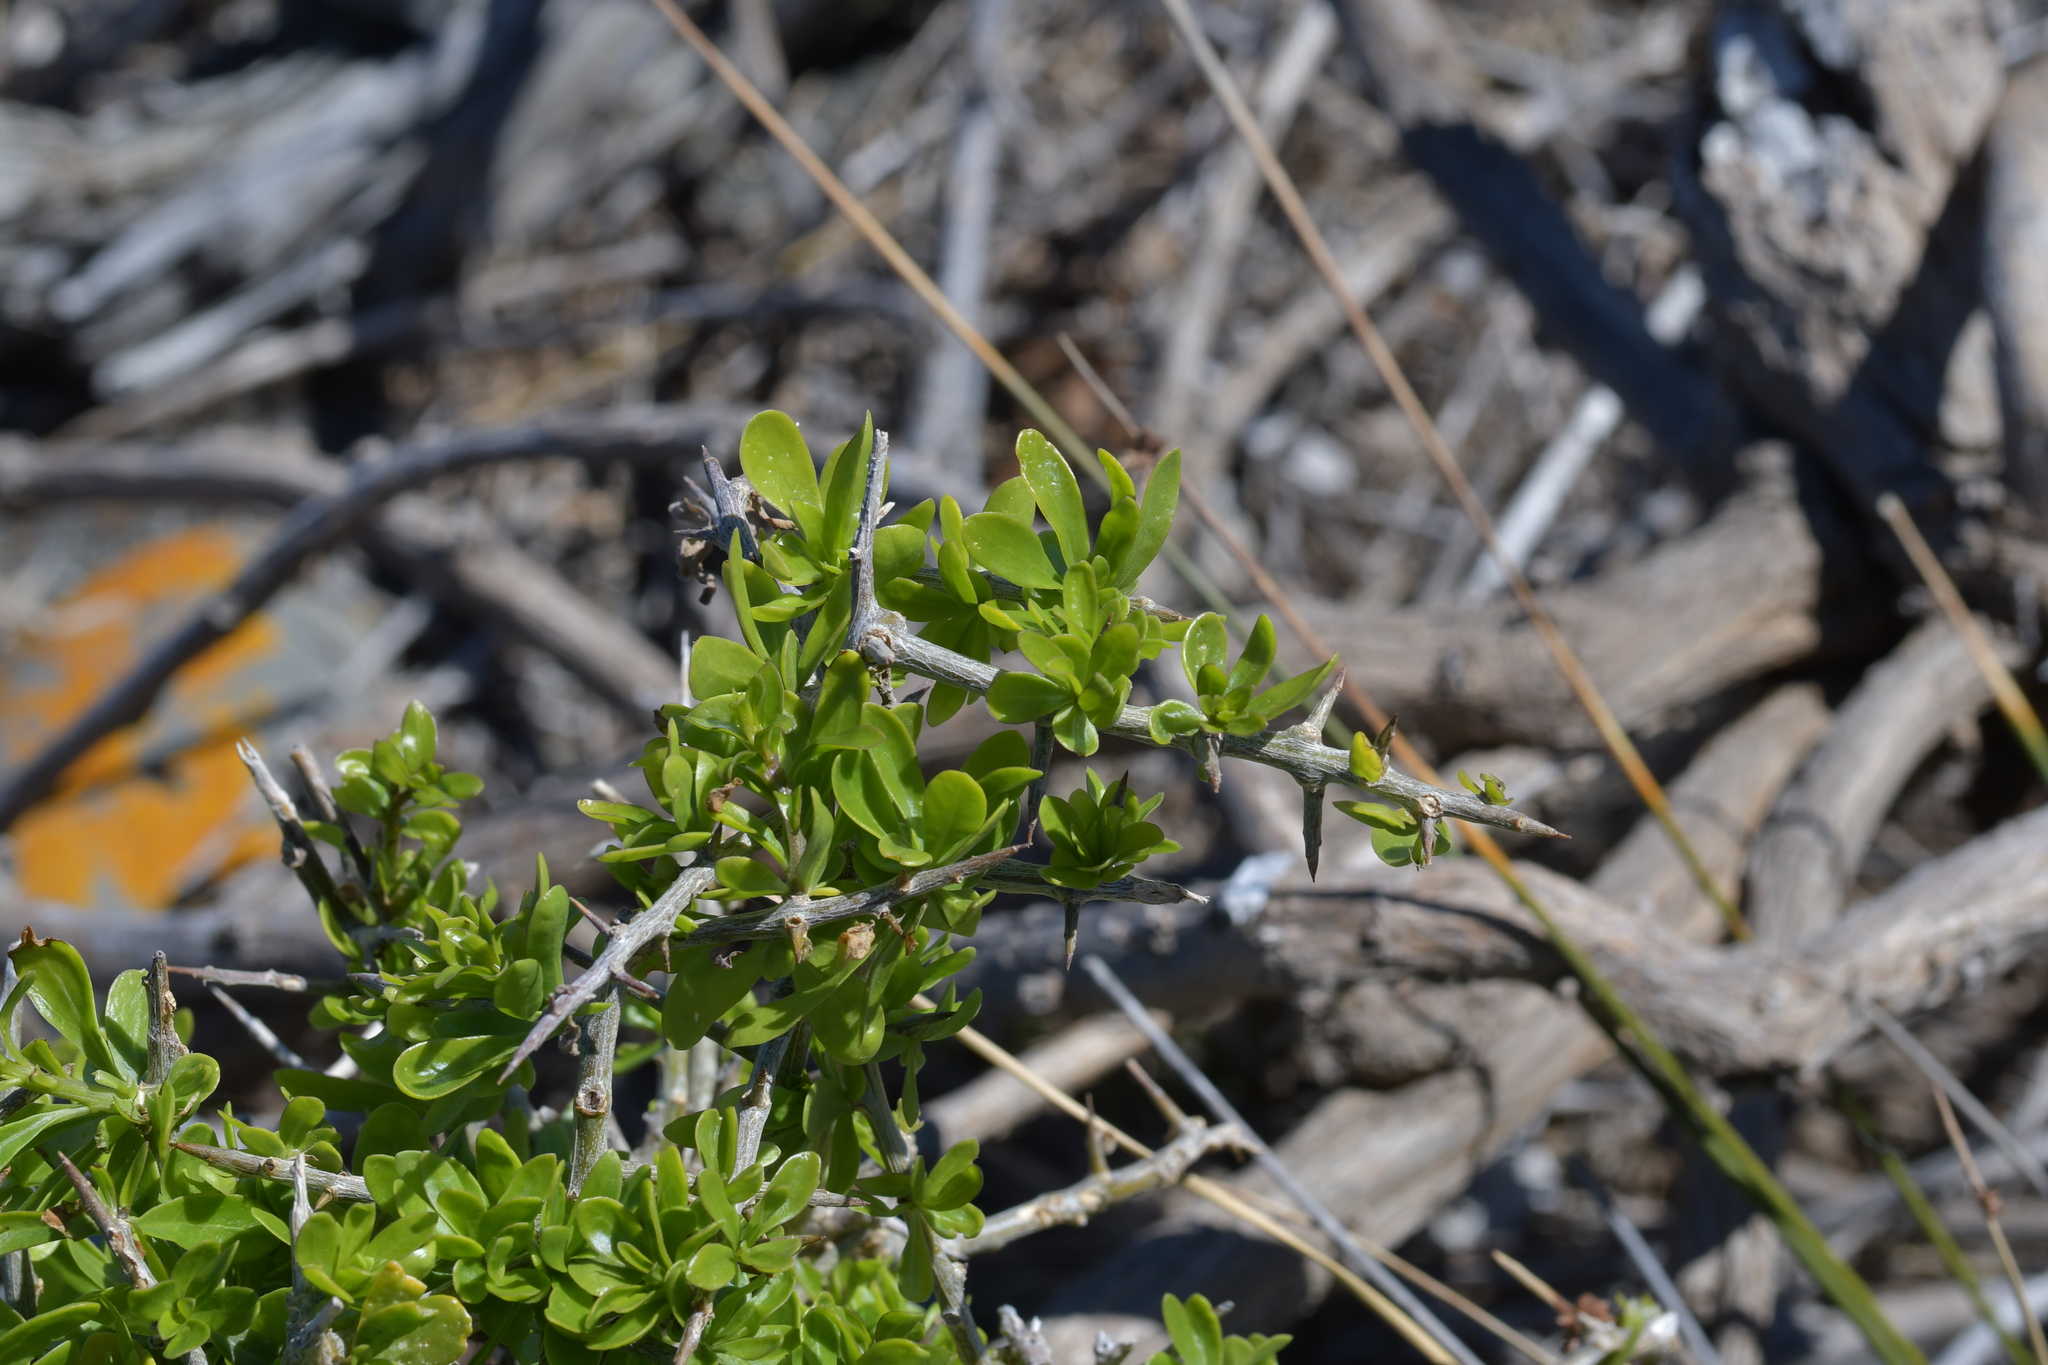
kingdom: Plantae
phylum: Tracheophyta
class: Magnoliopsida
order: Solanales
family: Solanaceae
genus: Lycium
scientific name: Lycium ferocissimum
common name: African boxthorn
